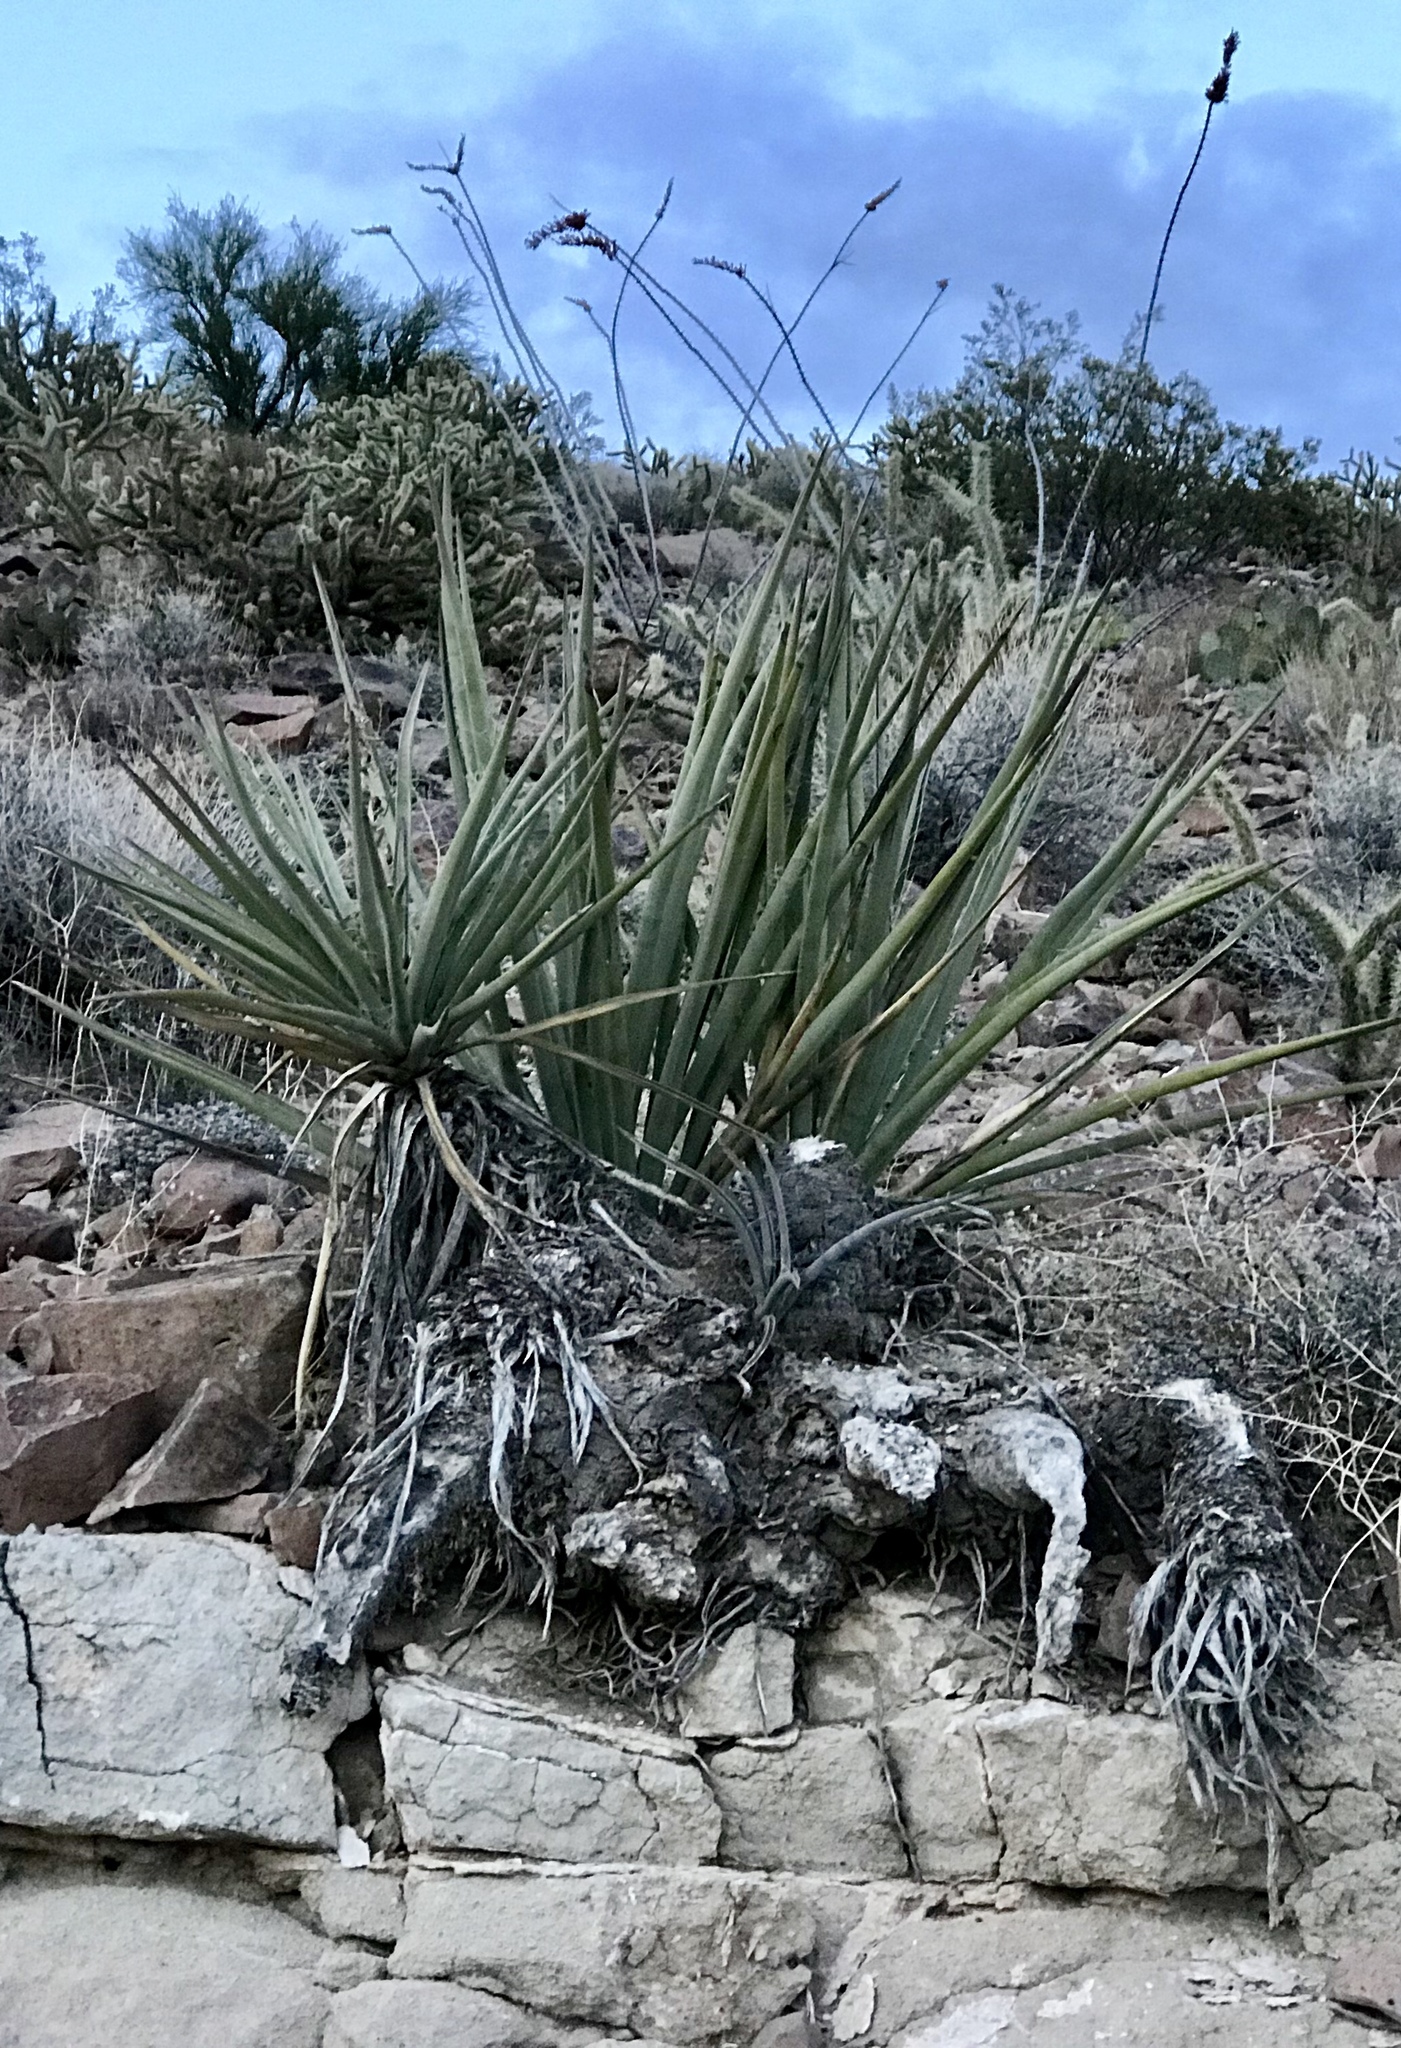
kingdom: Plantae
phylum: Tracheophyta
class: Liliopsida
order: Asparagales
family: Asparagaceae
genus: Yucca
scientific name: Yucca baccata
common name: Banana yucca
